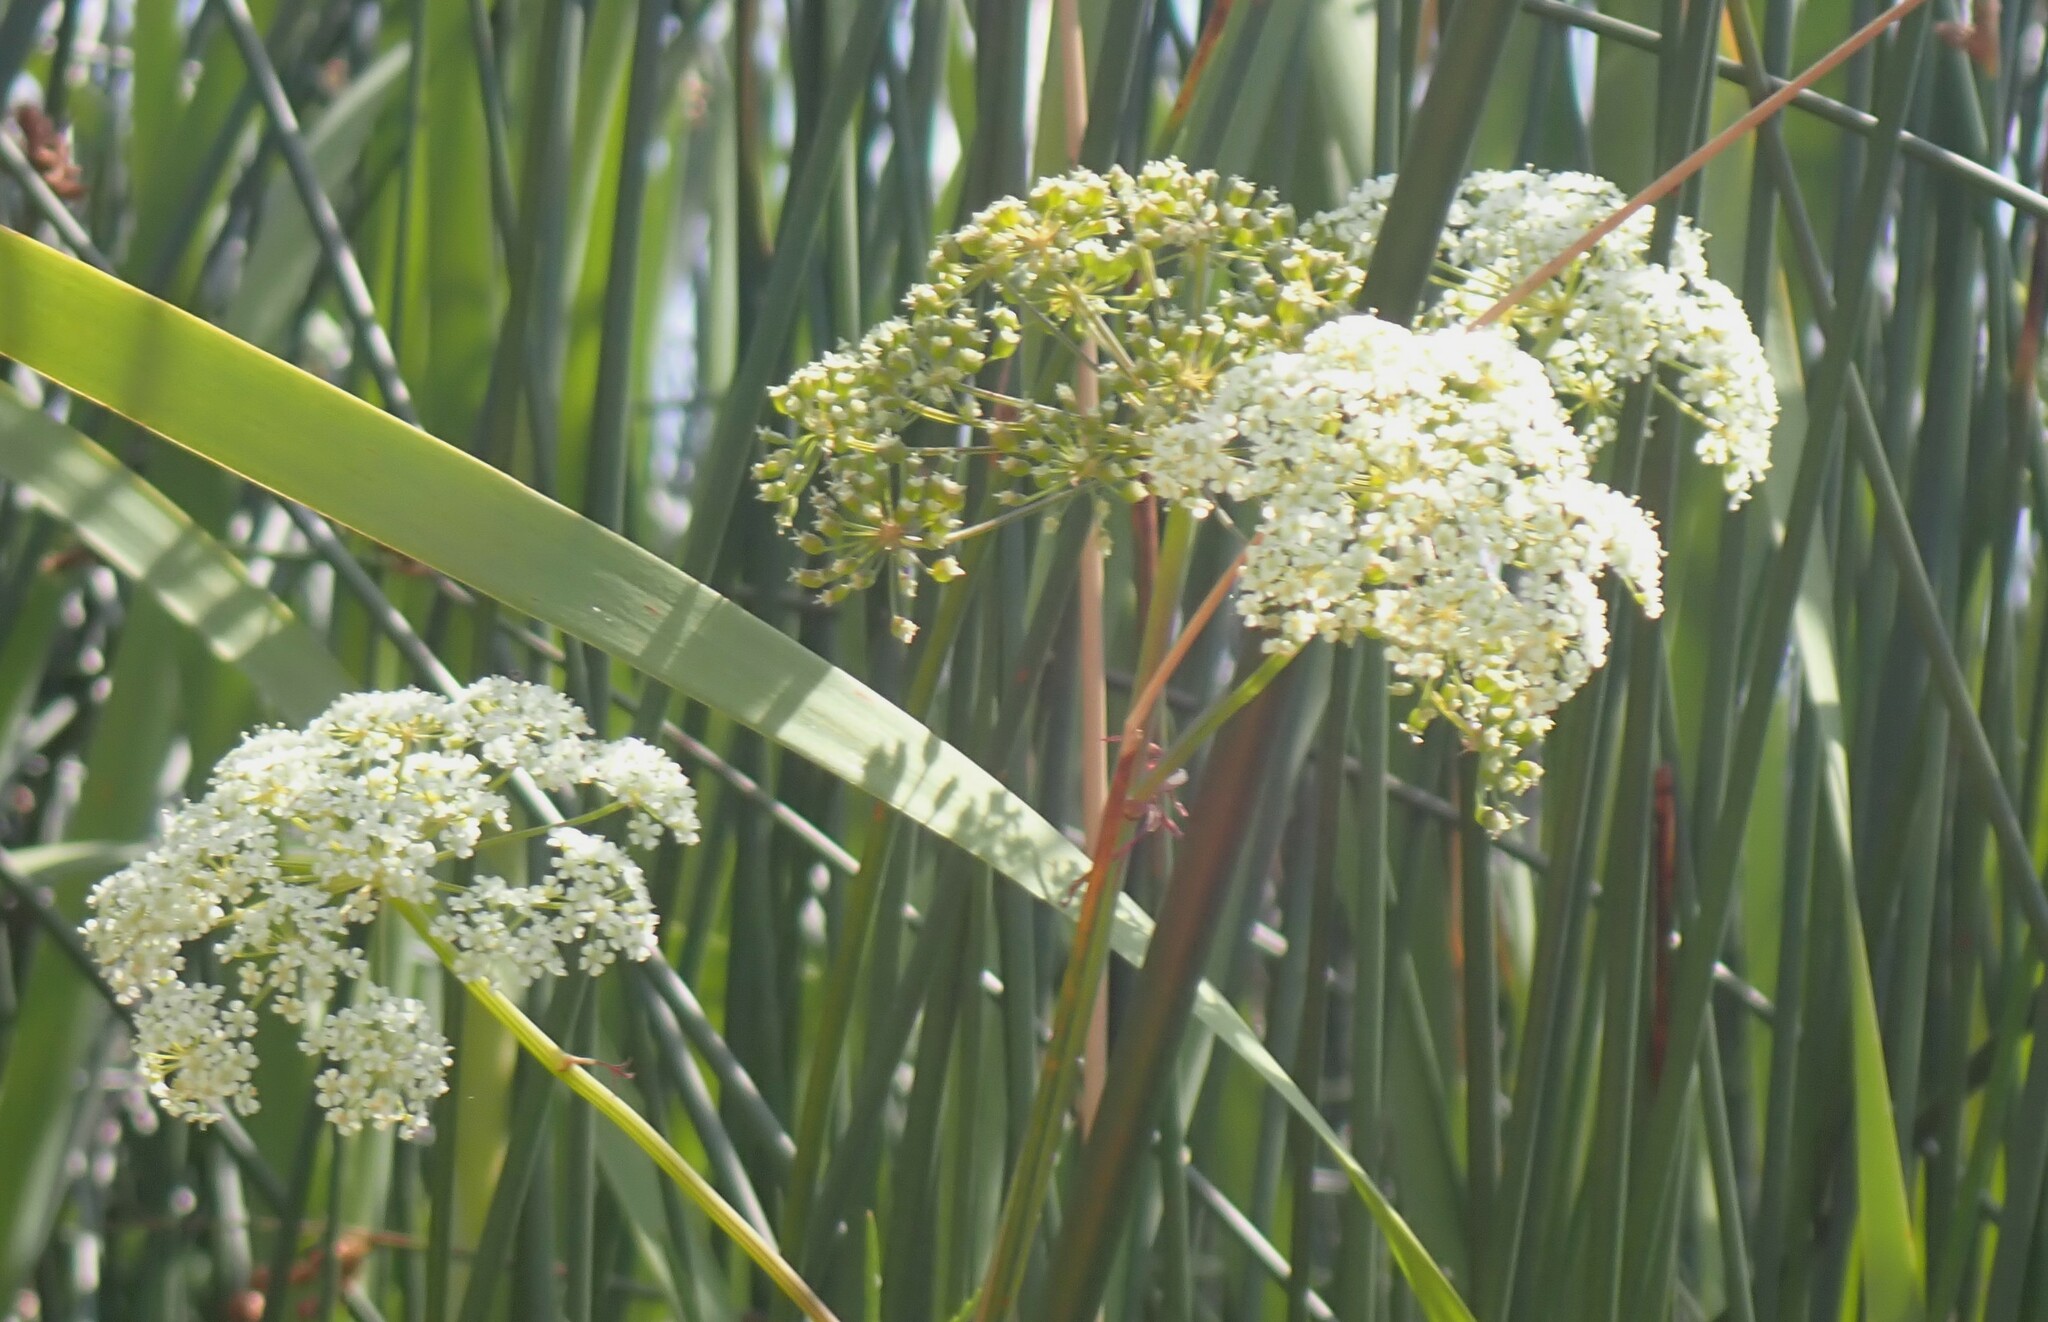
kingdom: Plantae
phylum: Tracheophyta
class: Magnoliopsida
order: Apiales
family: Apiaceae
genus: Cicuta
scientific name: Cicuta maculata
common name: Spotted cowbane
